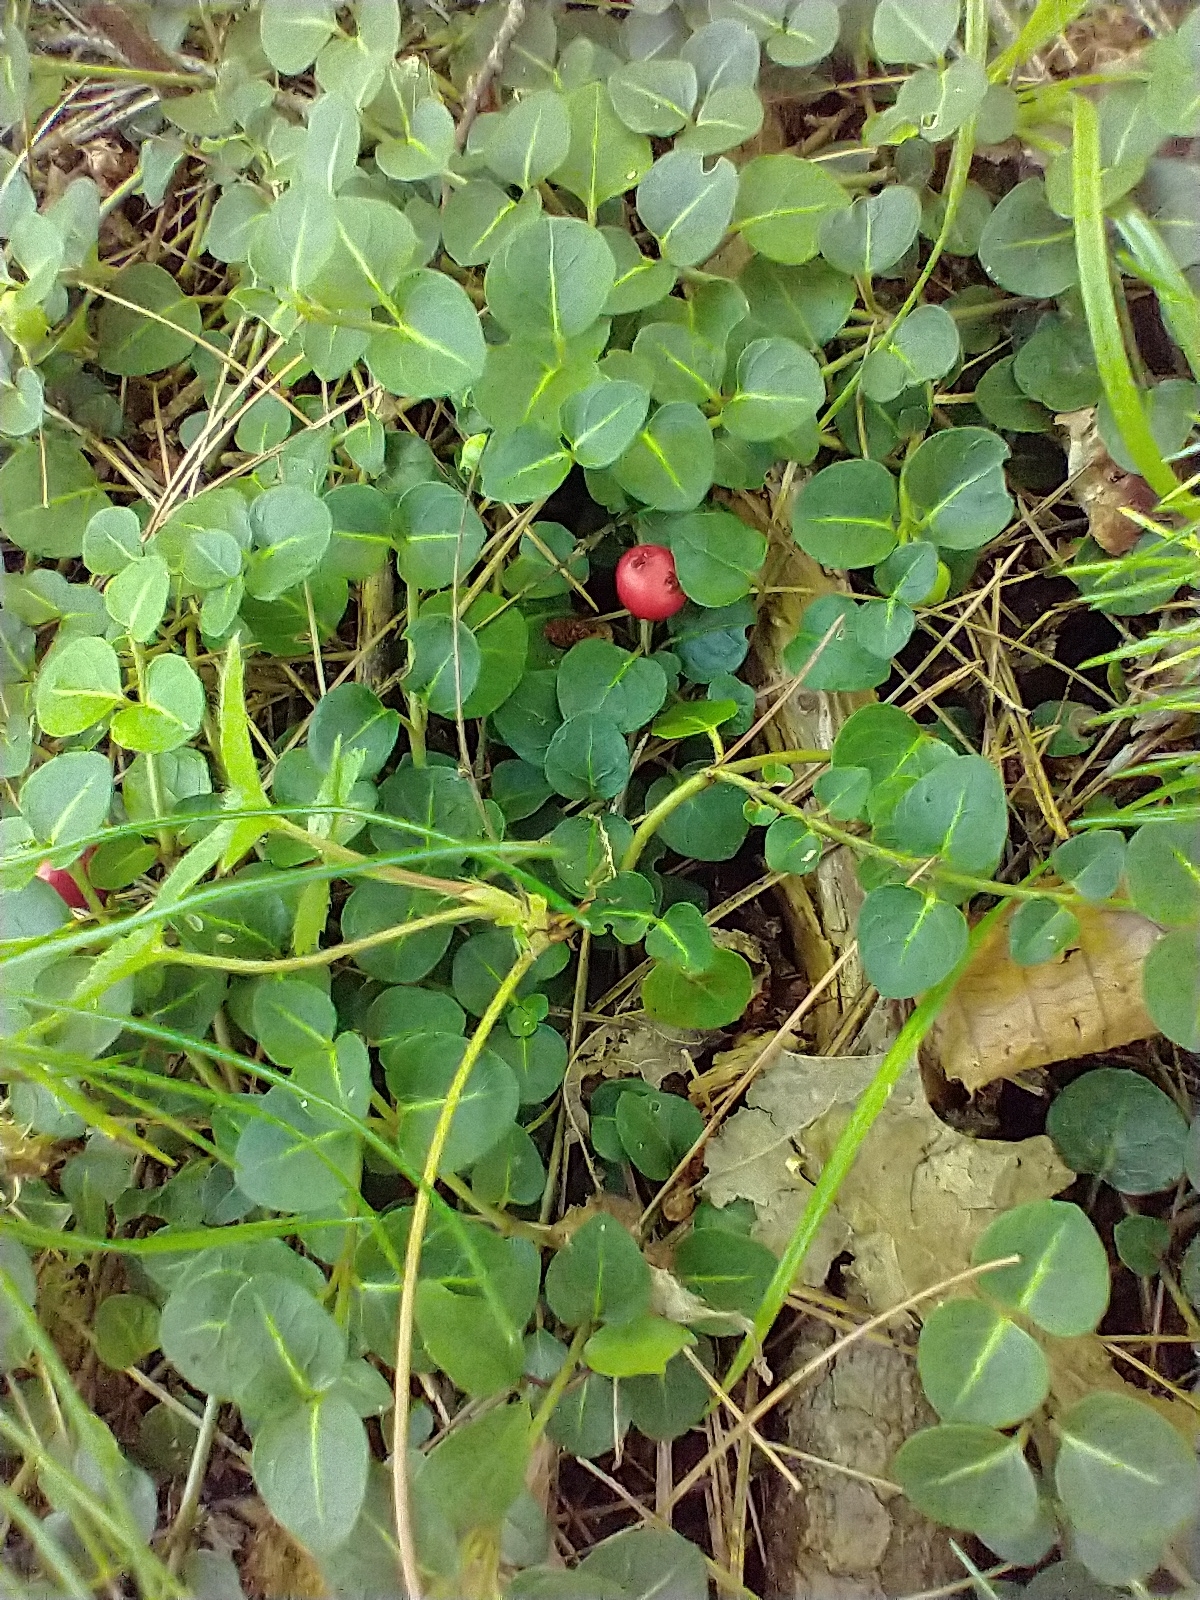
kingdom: Plantae
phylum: Tracheophyta
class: Magnoliopsida
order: Gentianales
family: Rubiaceae
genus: Mitchella
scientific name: Mitchella repens
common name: Partridge-berry
